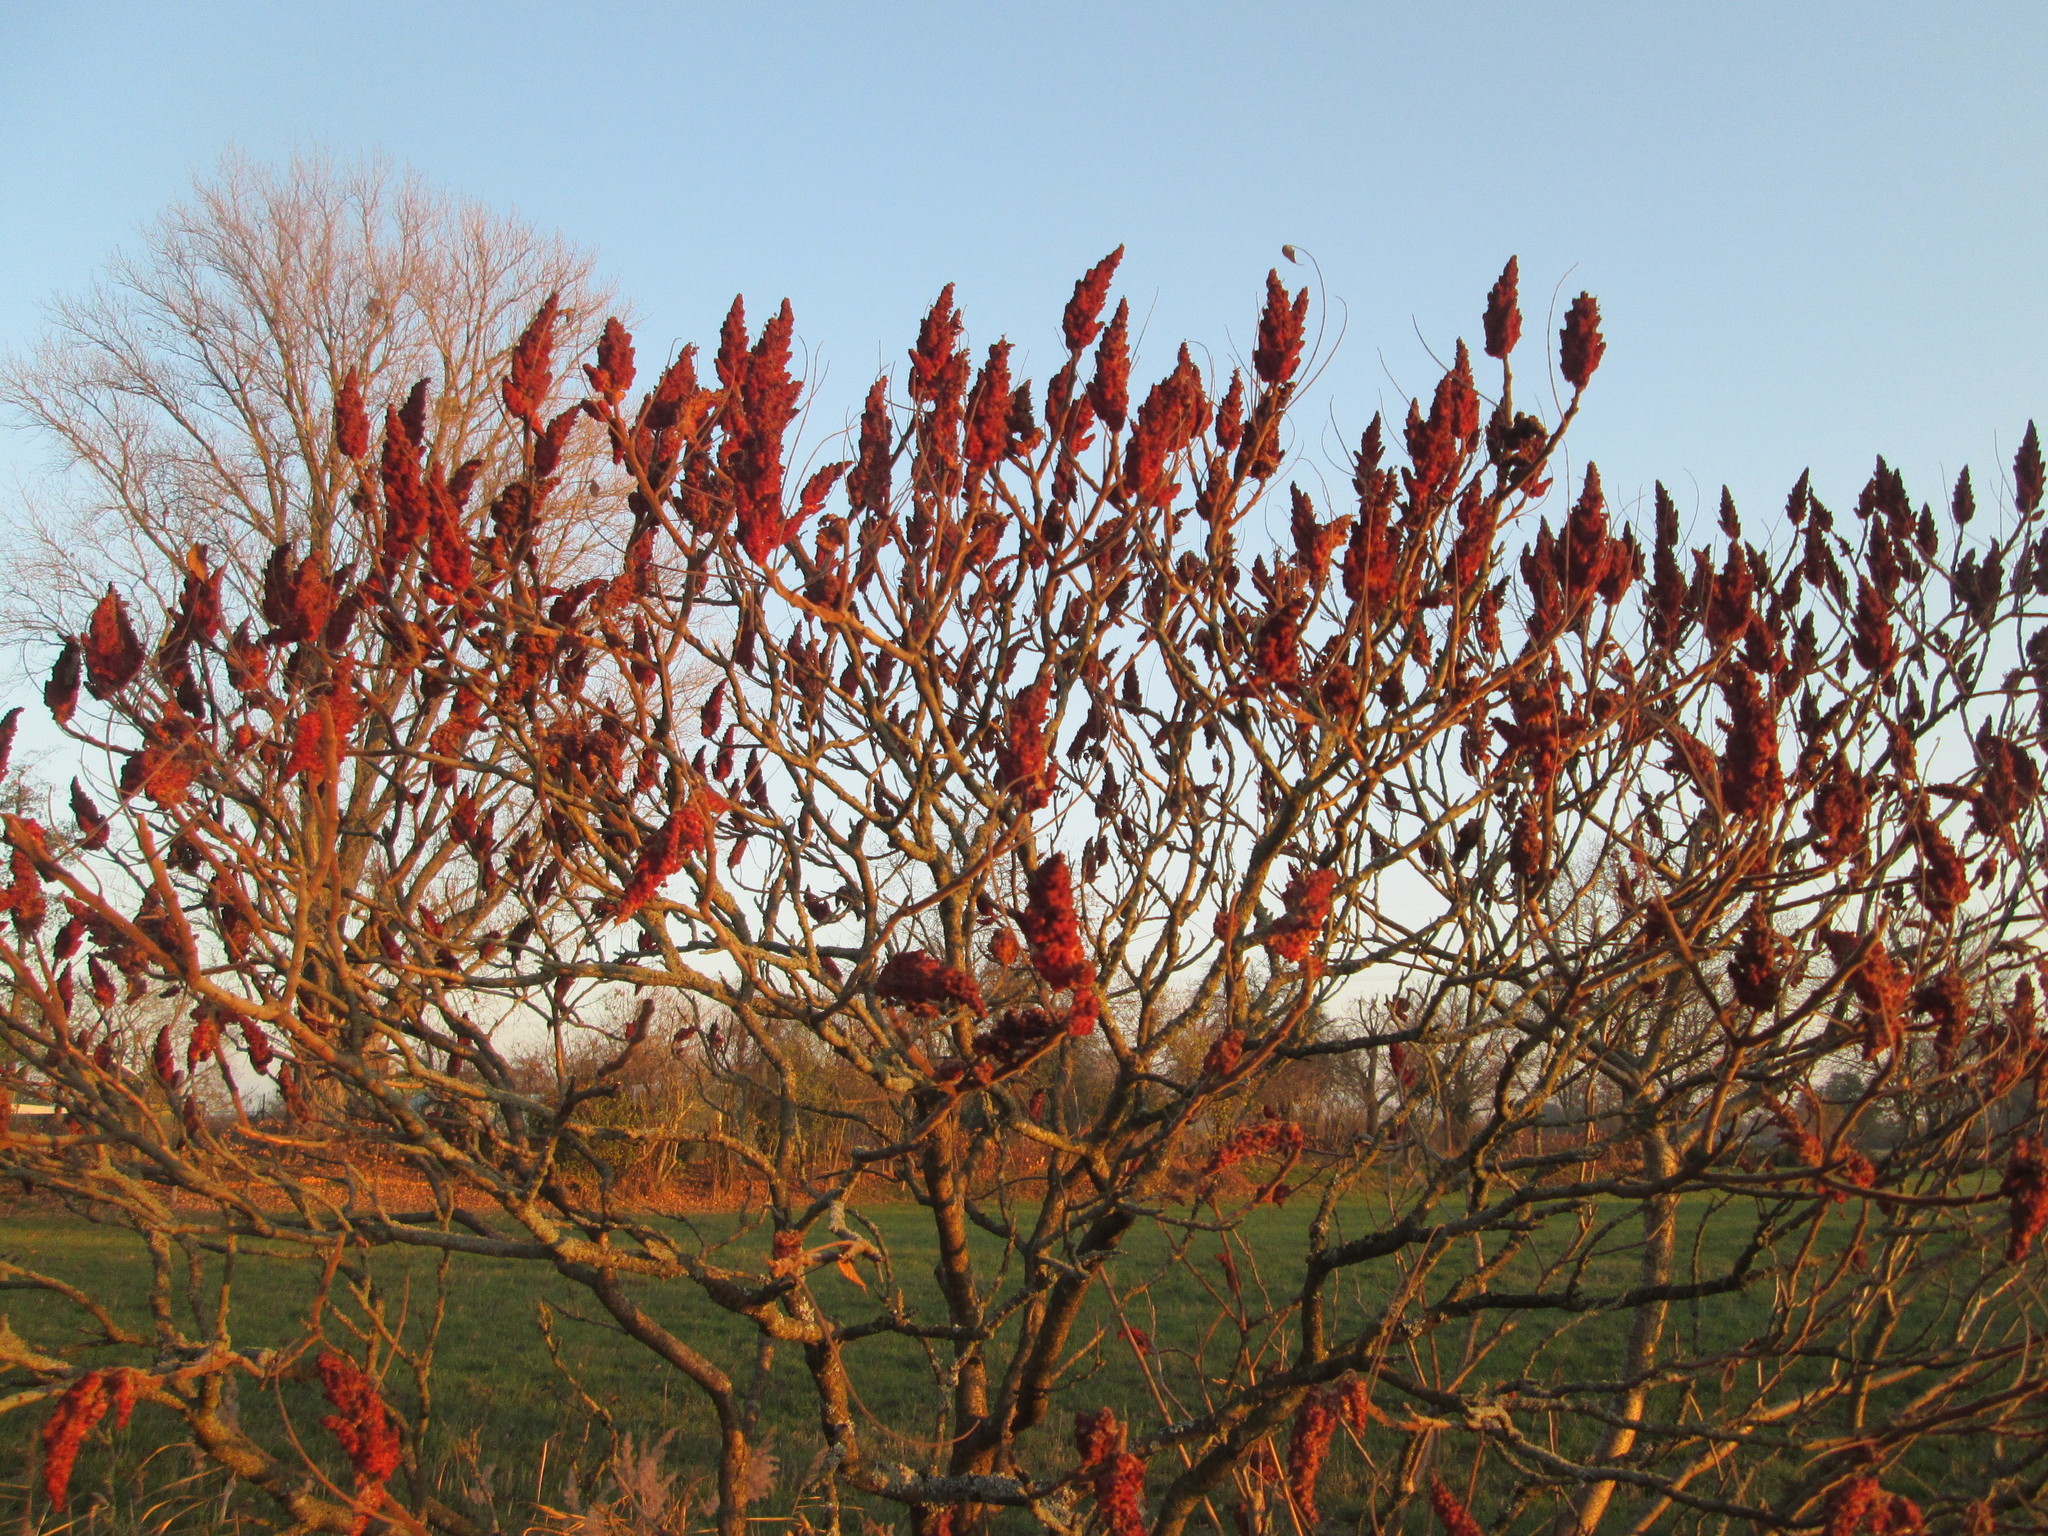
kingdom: Plantae
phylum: Tracheophyta
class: Magnoliopsida
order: Sapindales
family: Anacardiaceae
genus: Rhus
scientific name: Rhus typhina
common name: Staghorn sumac
